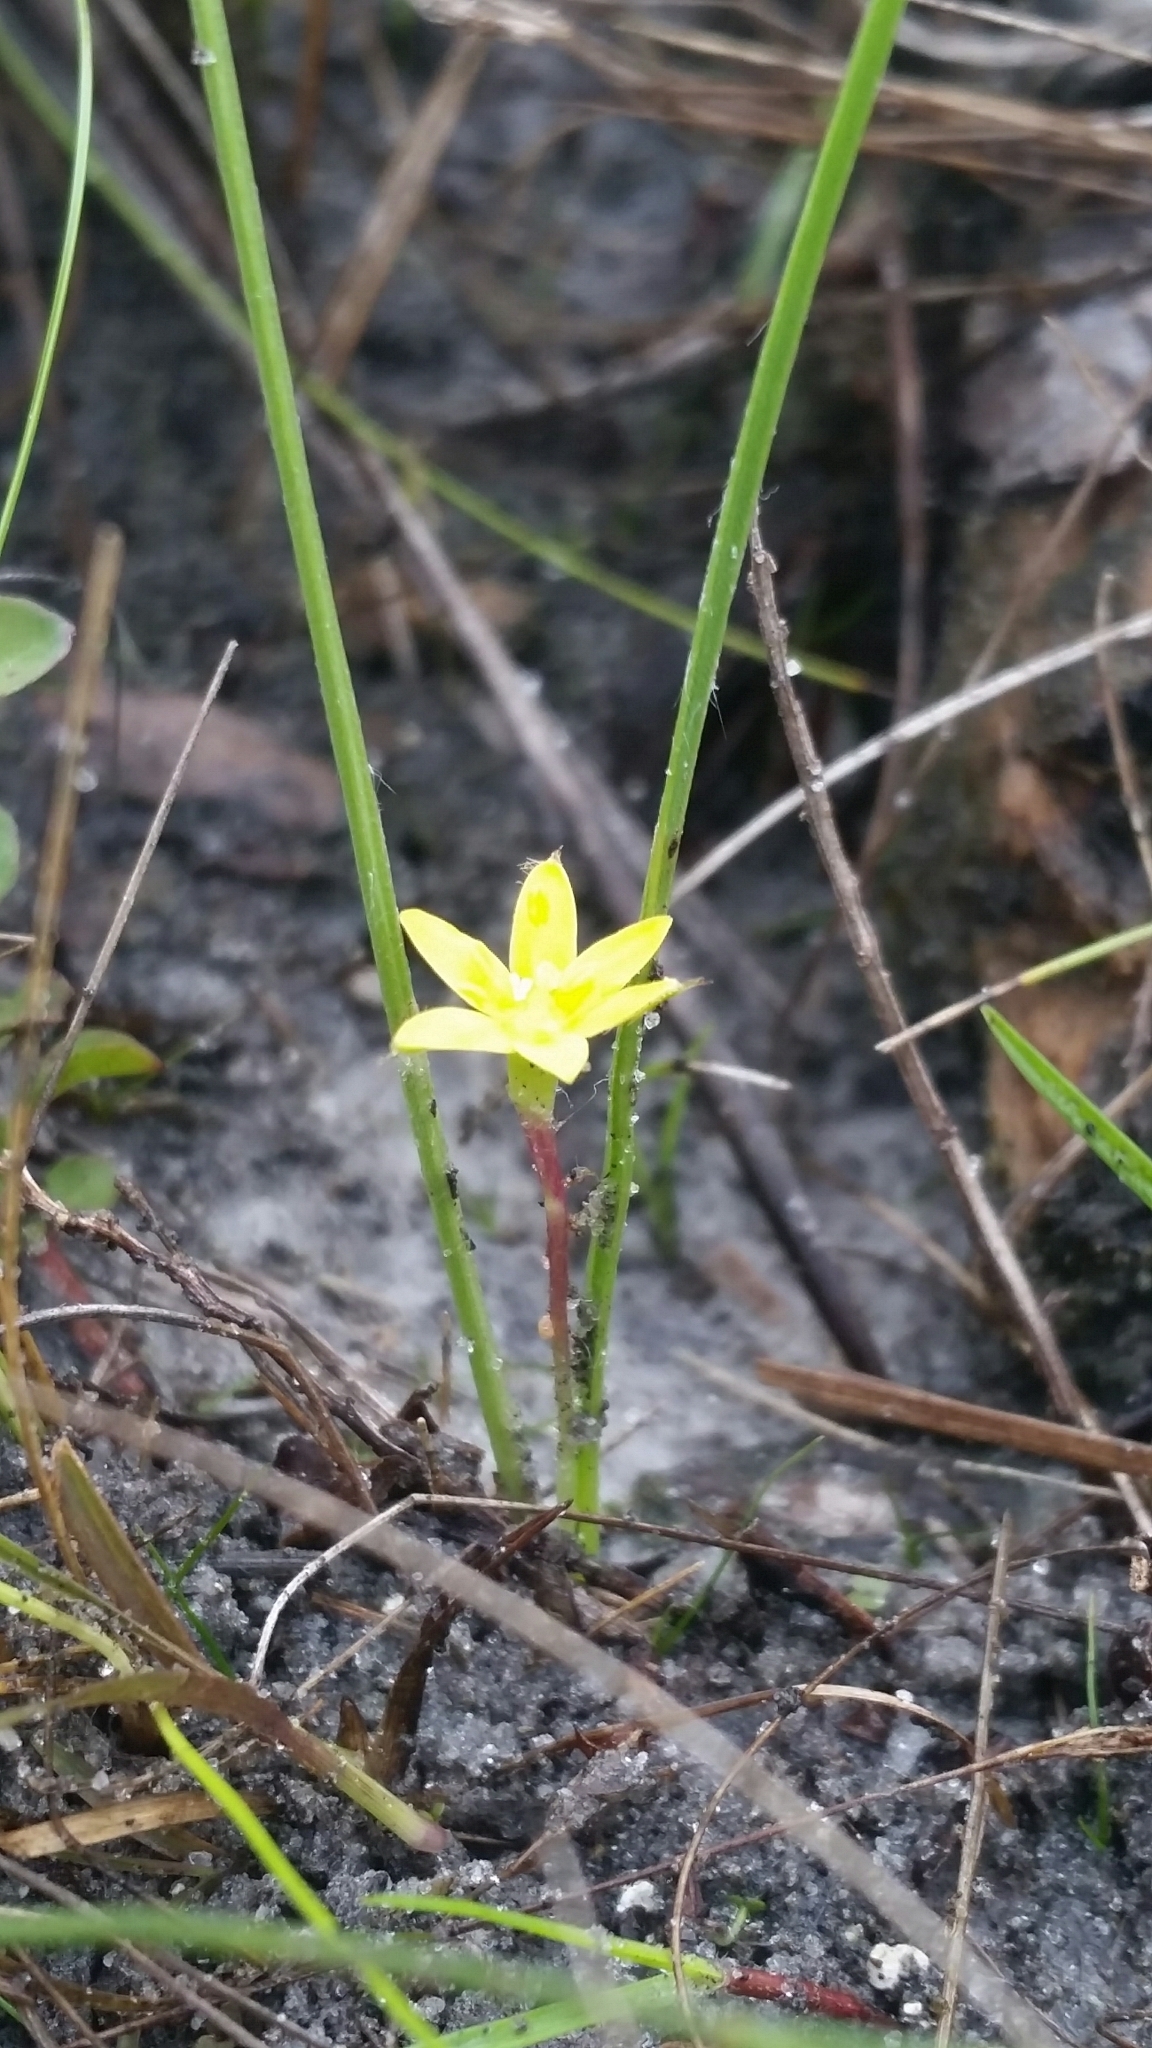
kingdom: Plantae
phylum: Tracheophyta
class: Liliopsida
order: Asparagales
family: Hypoxidaceae
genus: Hypoxis
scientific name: Hypoxis wrightii
